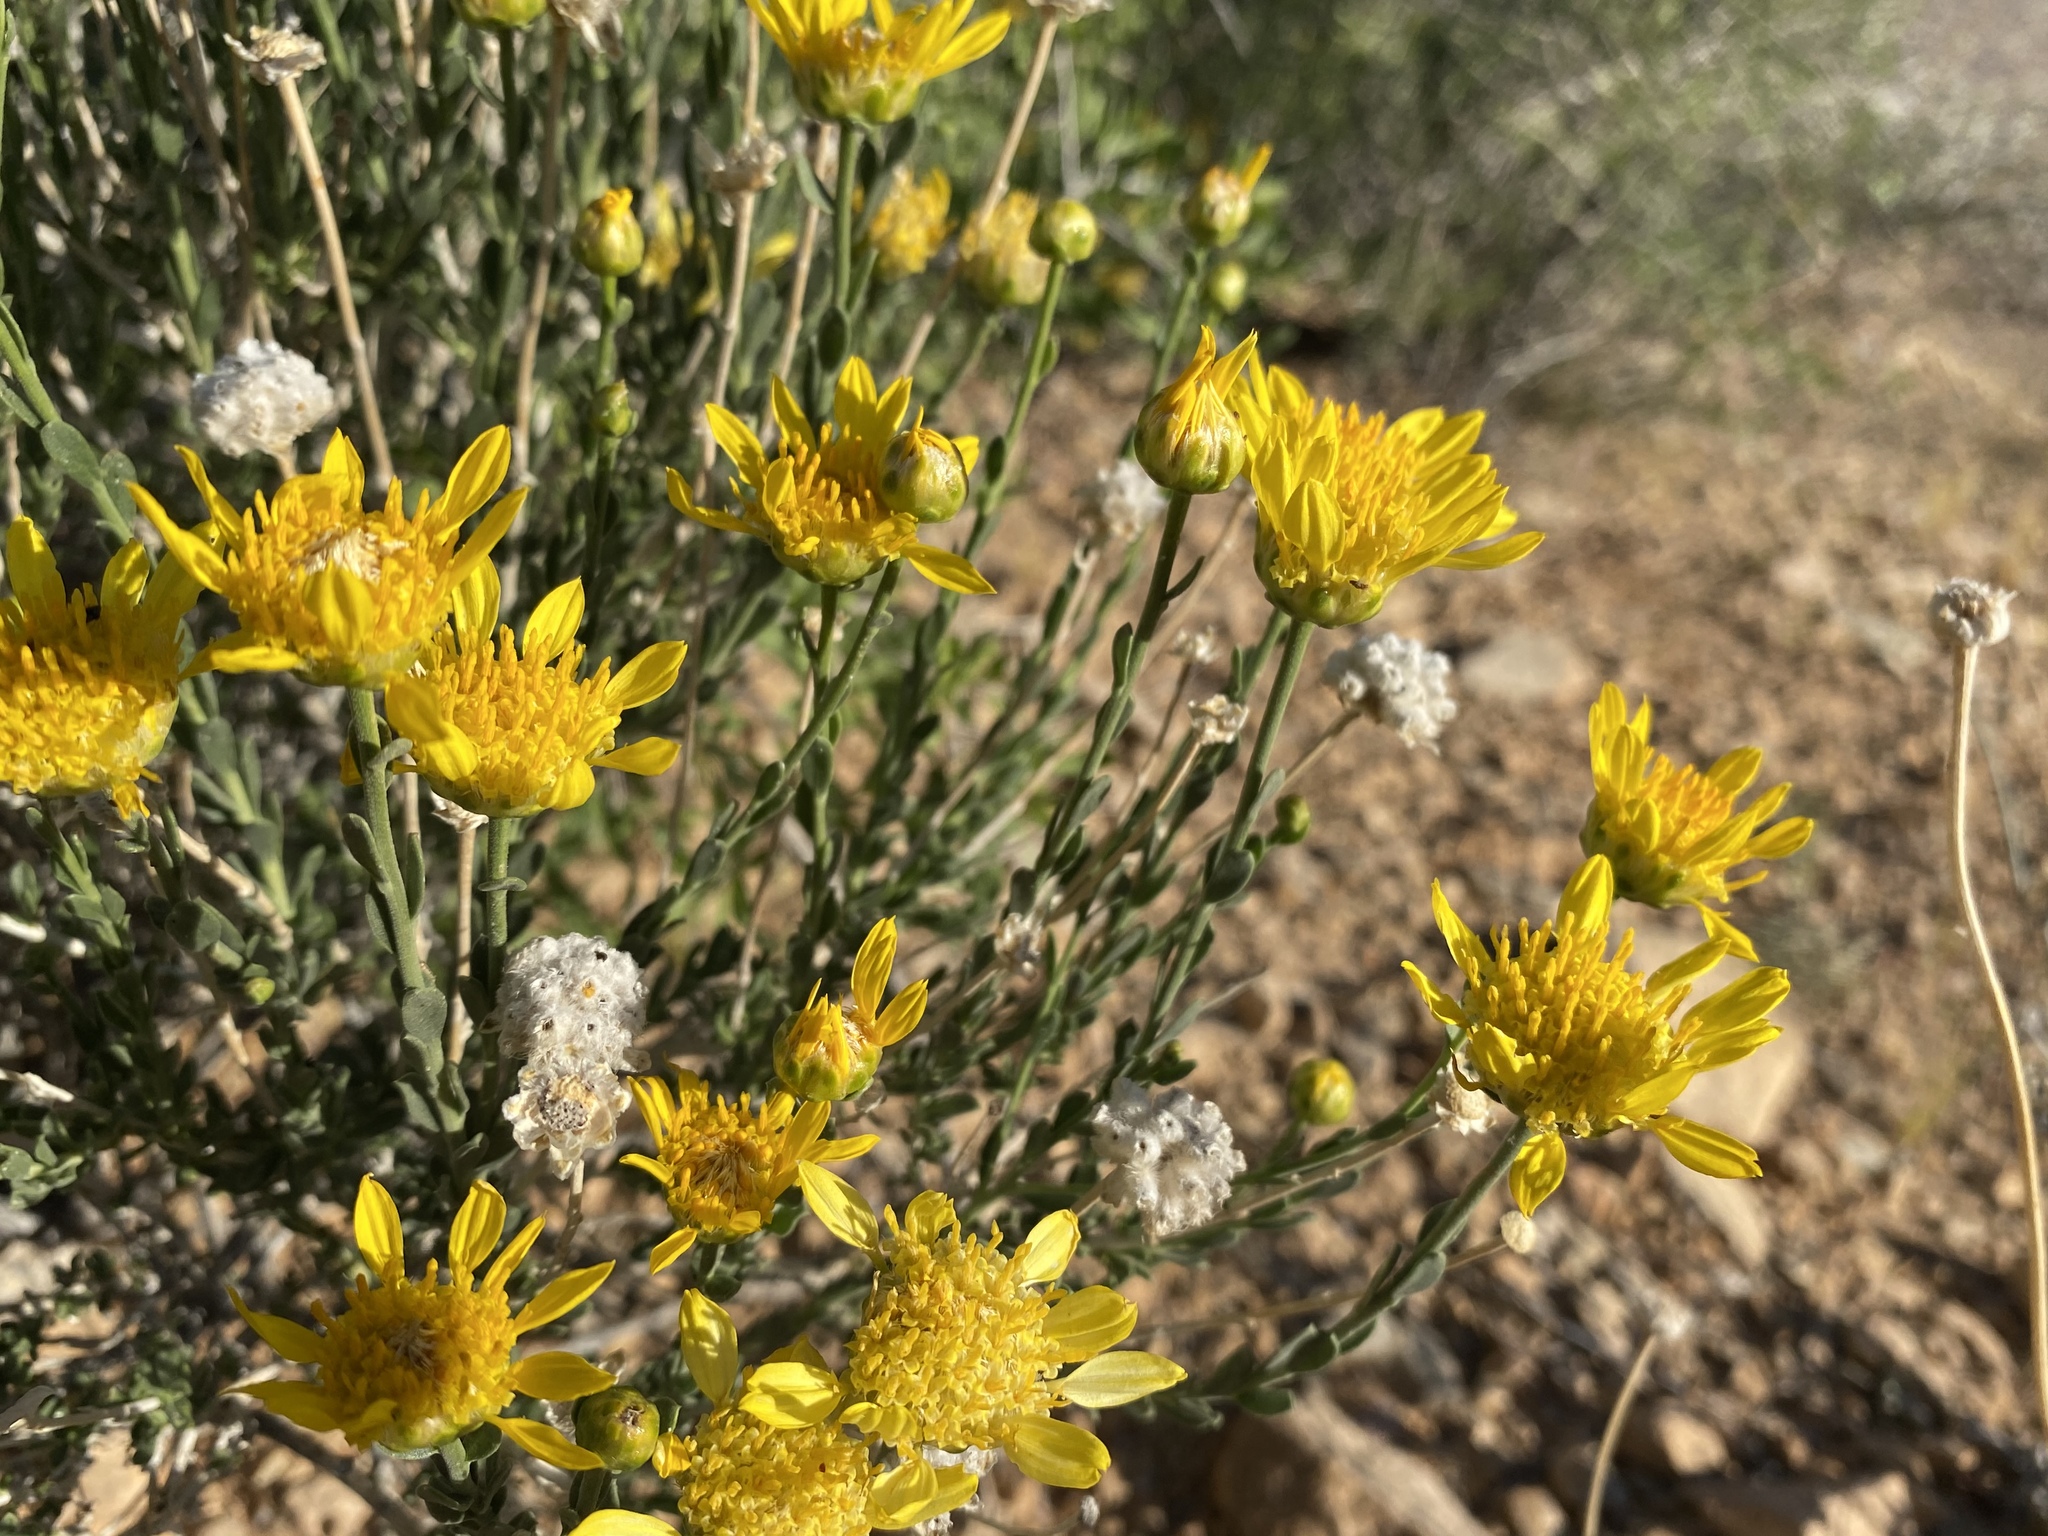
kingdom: Plantae
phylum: Tracheophyta
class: Magnoliopsida
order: Asterales
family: Asteraceae
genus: Acamptopappus
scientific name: Acamptopappus shockleyi
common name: Shockley's goldenhead
